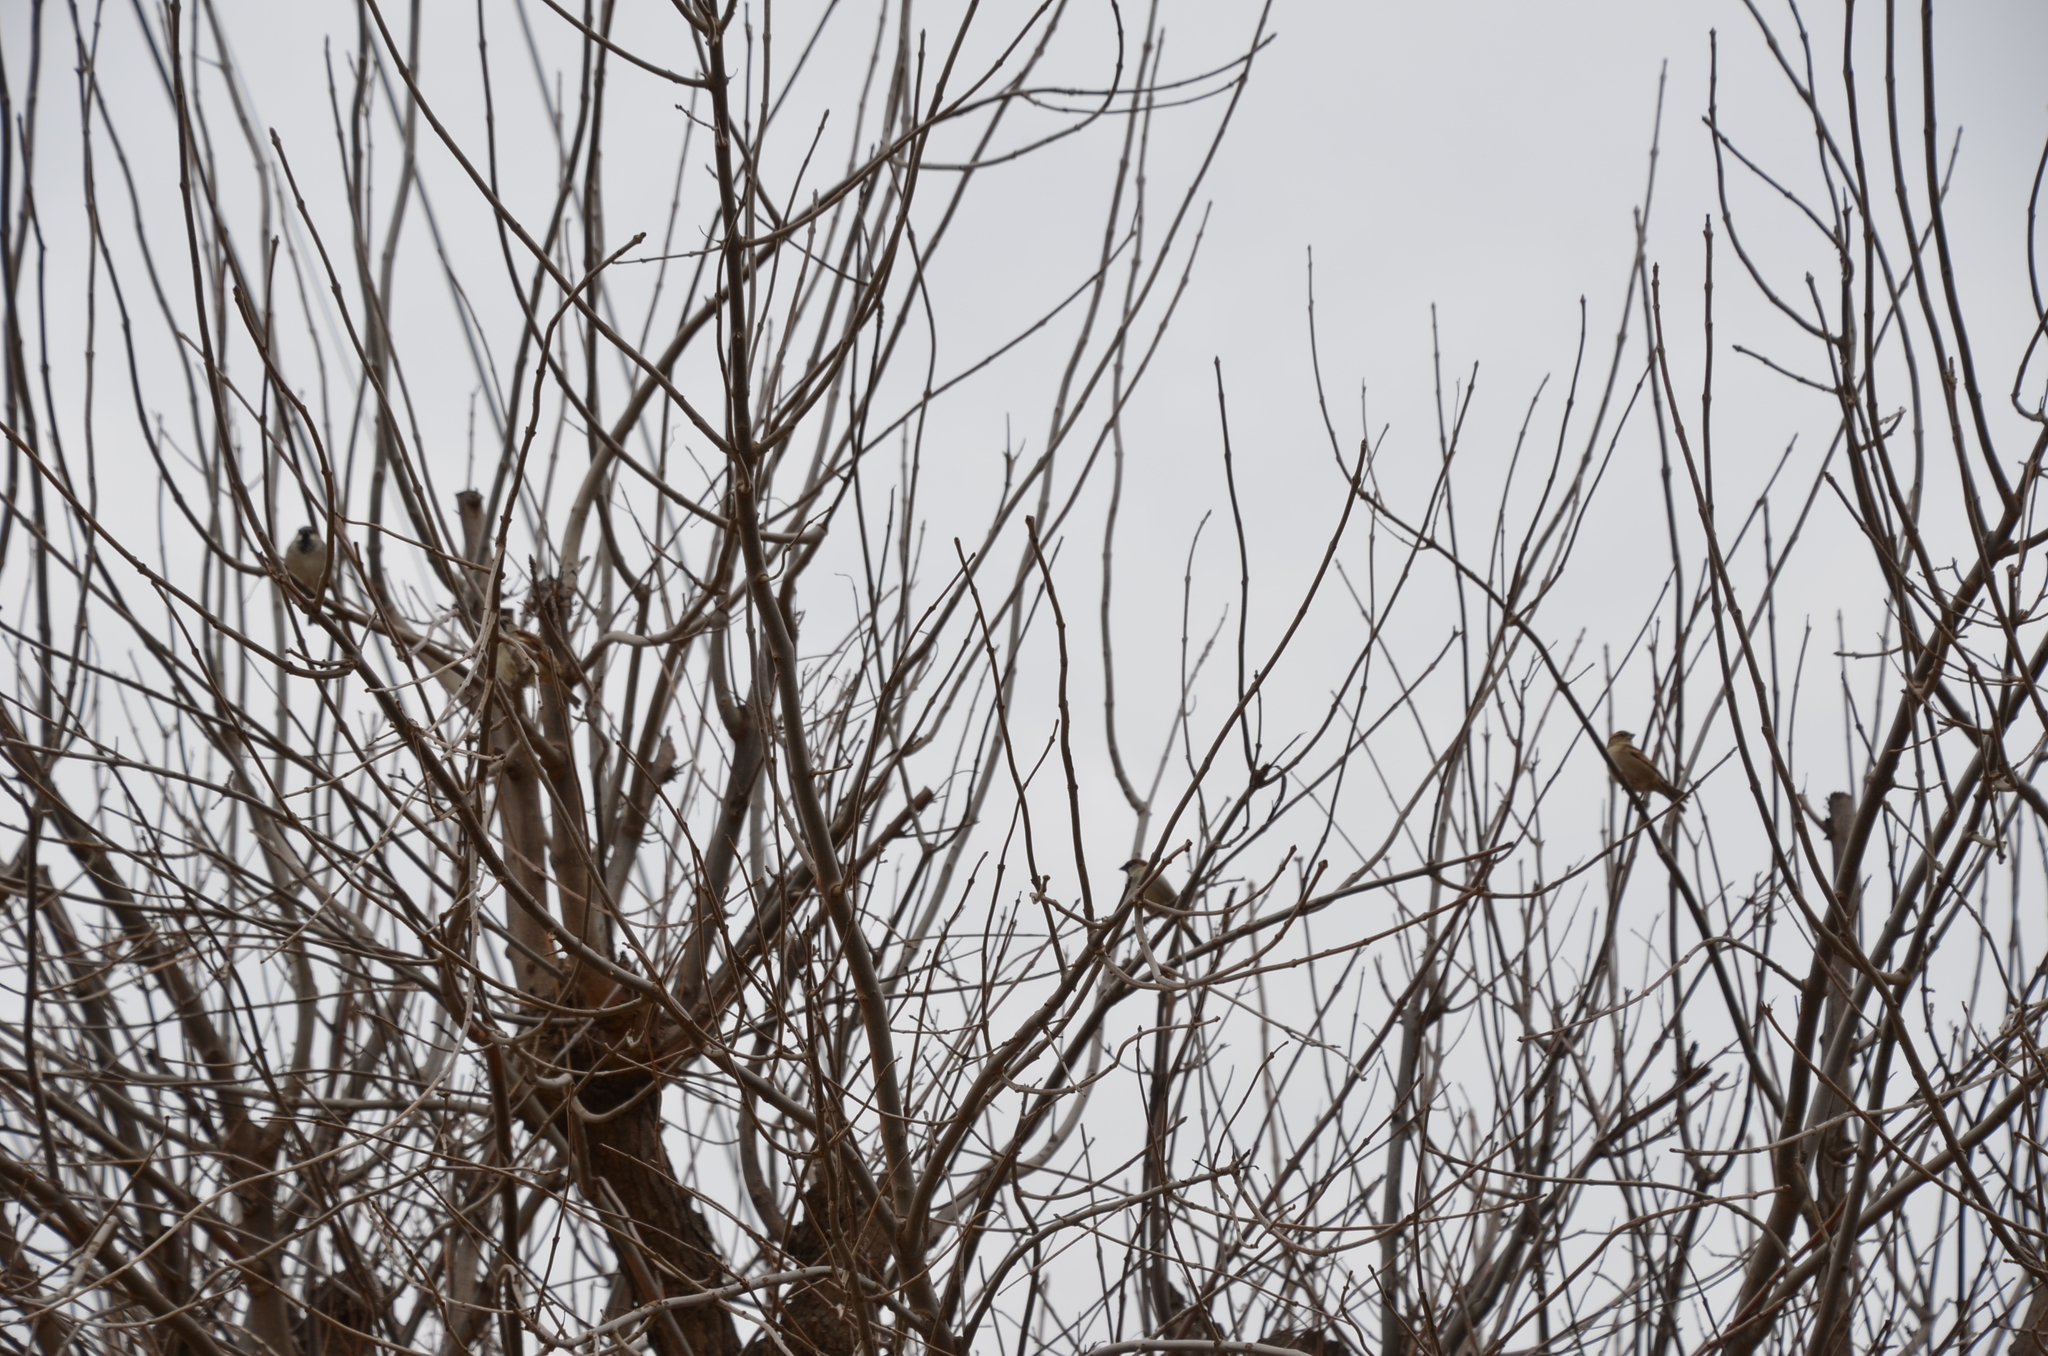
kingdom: Animalia
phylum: Chordata
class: Aves
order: Passeriformes
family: Passeridae
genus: Passer
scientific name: Passer domesticus
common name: House sparrow
